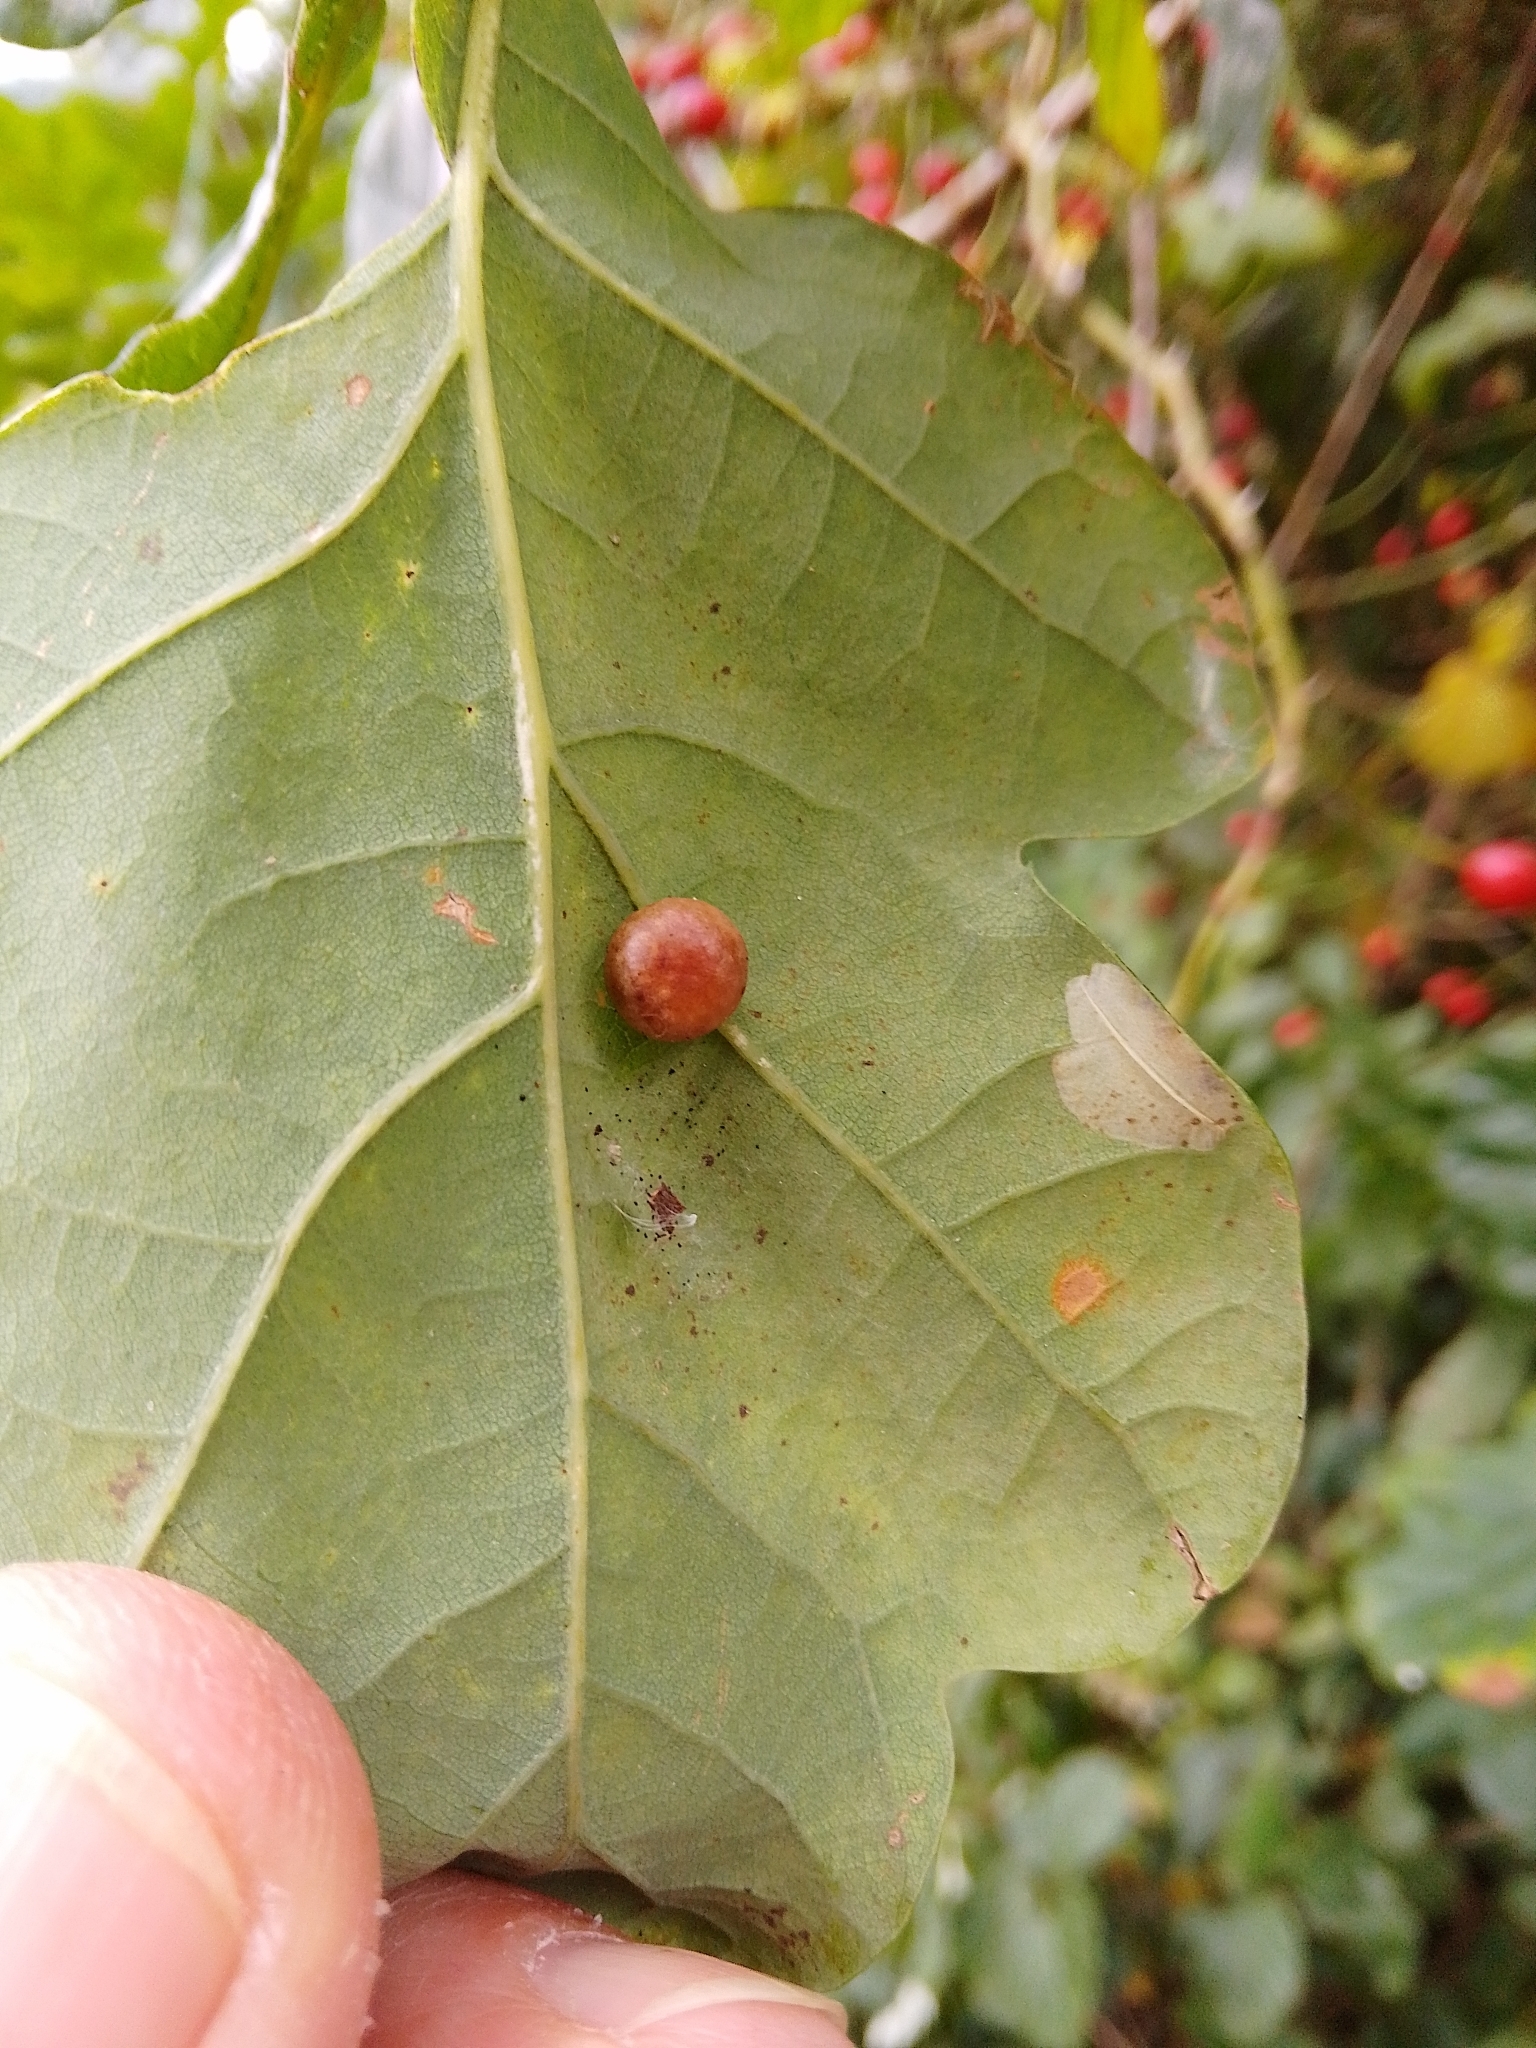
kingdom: Animalia
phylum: Arthropoda
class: Insecta
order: Hymenoptera
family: Cynipidae
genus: Cynips
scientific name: Cynips divisa
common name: Red currant gall
